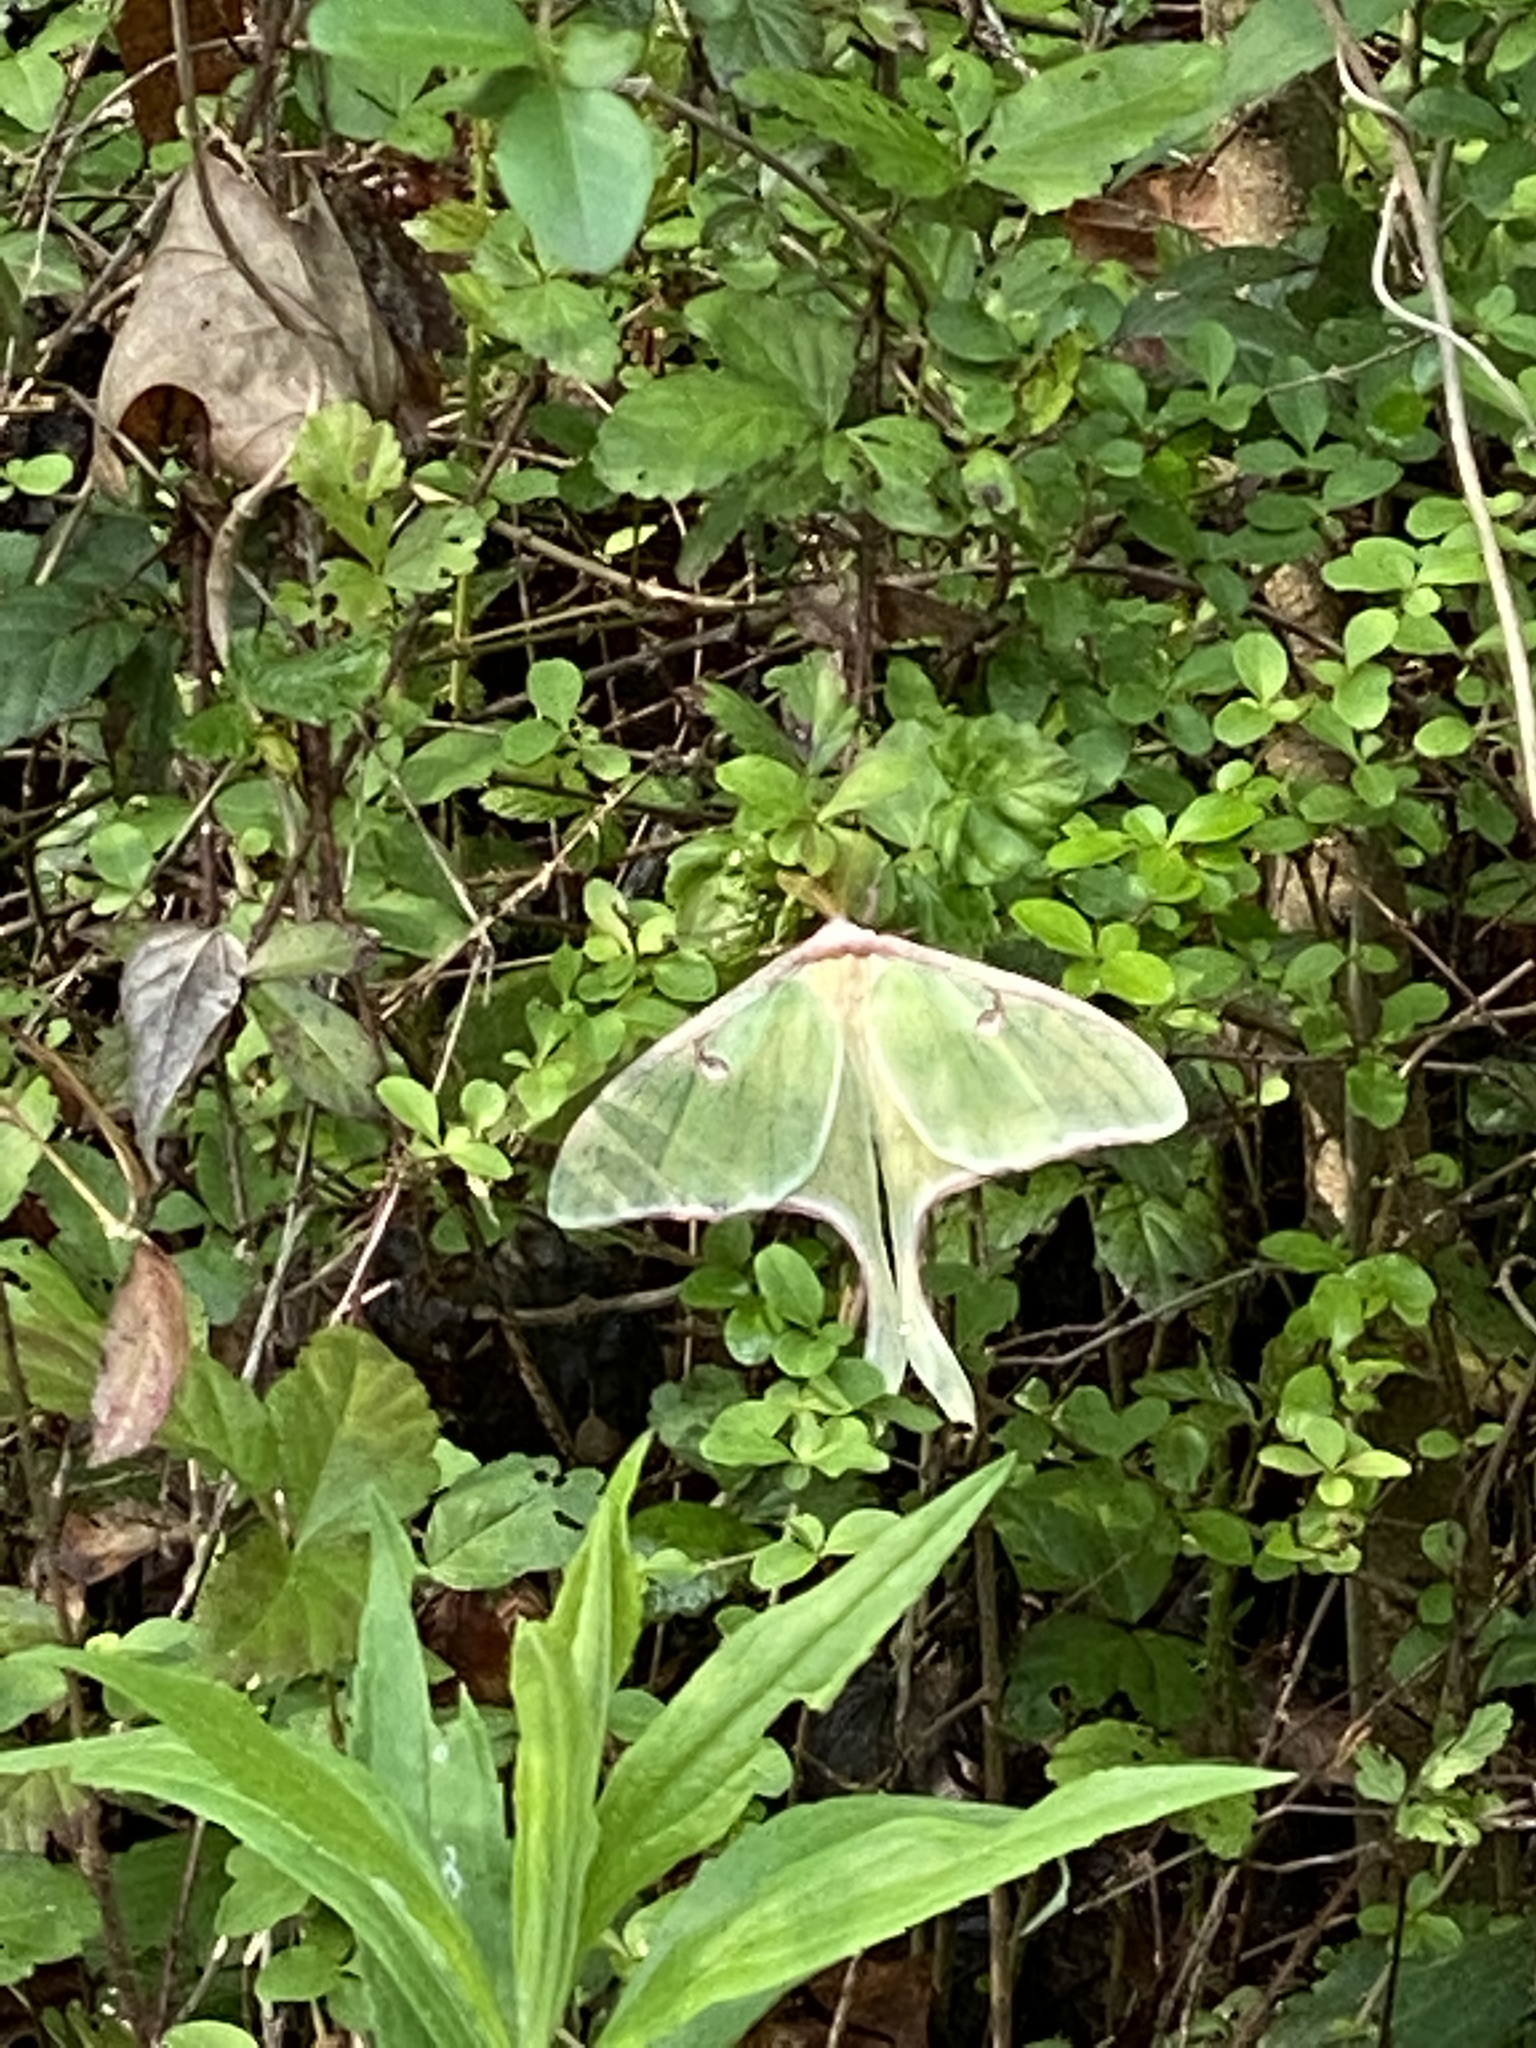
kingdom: Animalia
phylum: Arthropoda
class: Insecta
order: Lepidoptera
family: Saturniidae
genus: Actias
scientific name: Actias luna
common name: Luna moth
